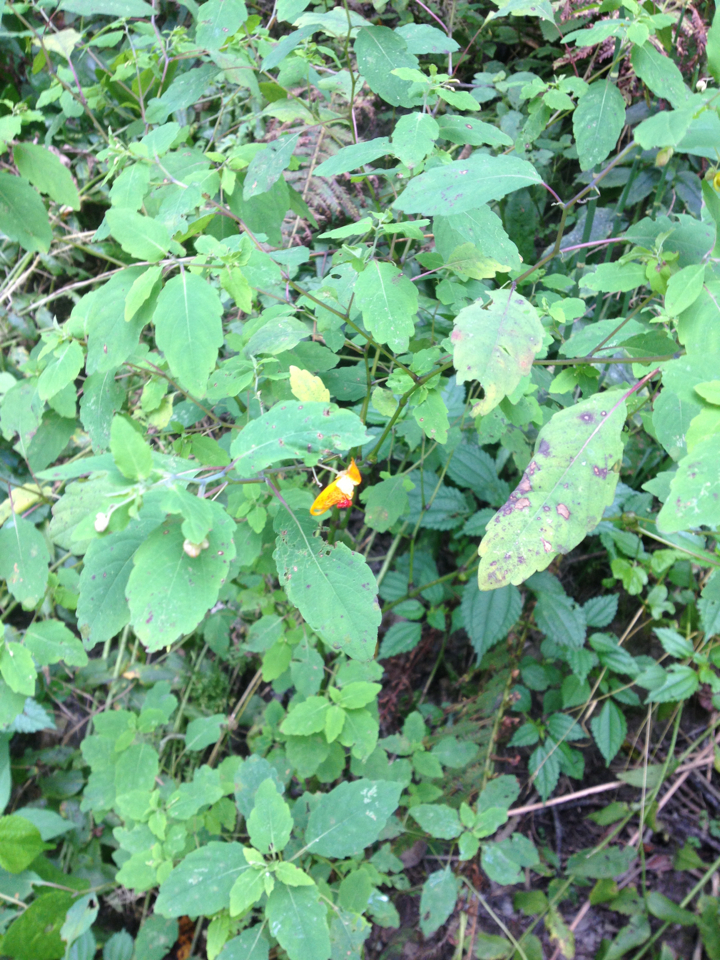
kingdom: Plantae
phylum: Tracheophyta
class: Magnoliopsida
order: Ericales
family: Balsaminaceae
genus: Impatiens
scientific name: Impatiens capensis
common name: Orange balsam
